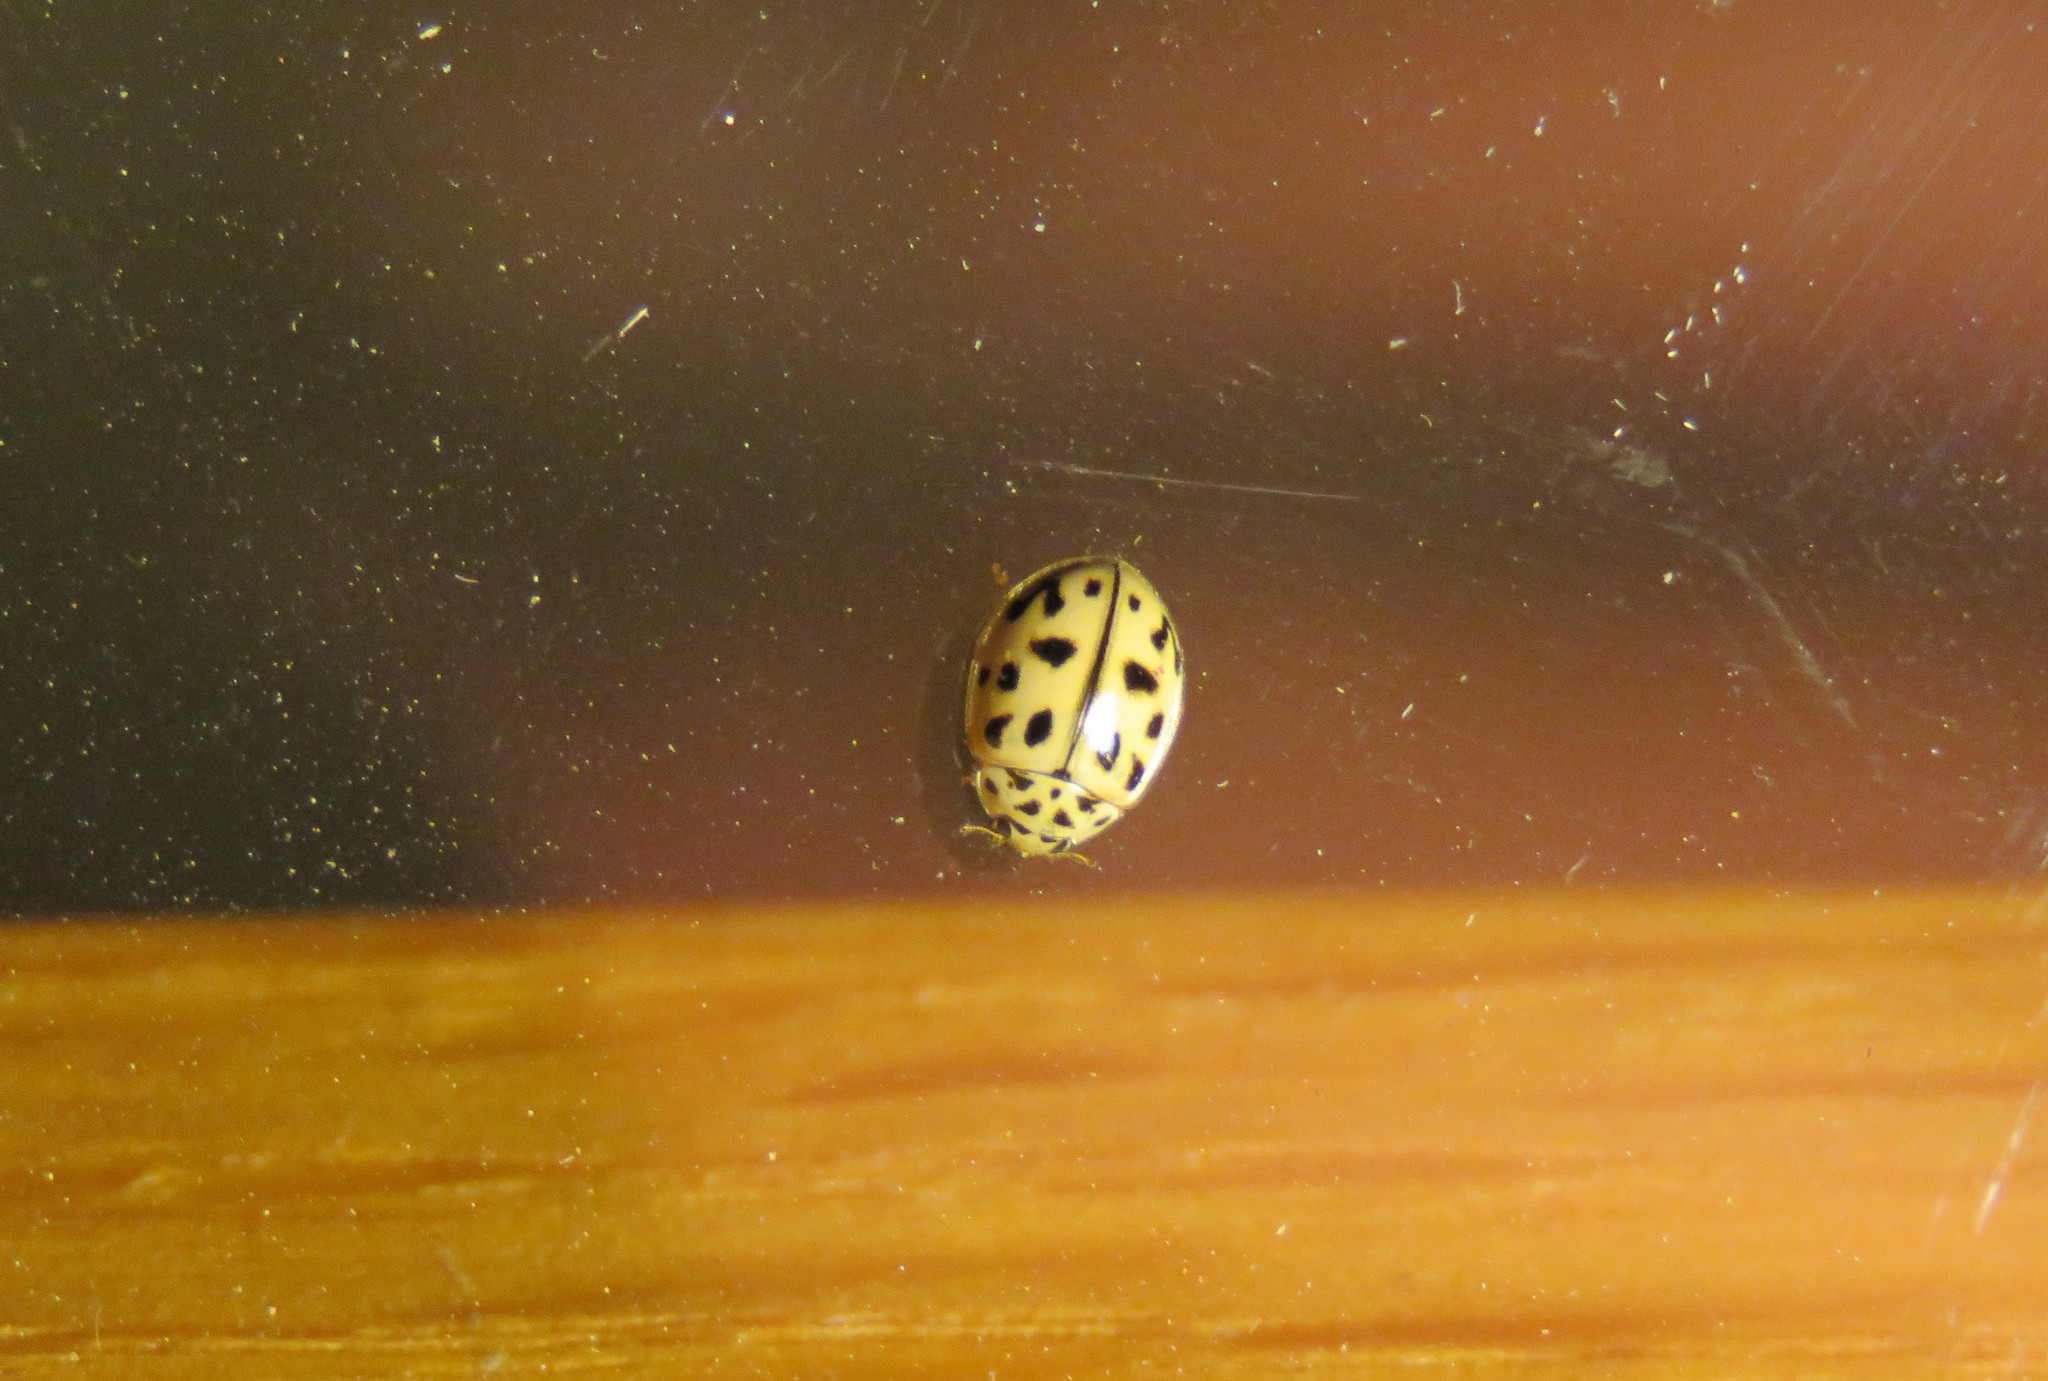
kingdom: Animalia
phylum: Arthropoda
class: Insecta
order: Coleoptera
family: Coccinellidae
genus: Oenopia
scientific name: Oenopia conglobata
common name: Ladybird beetle
